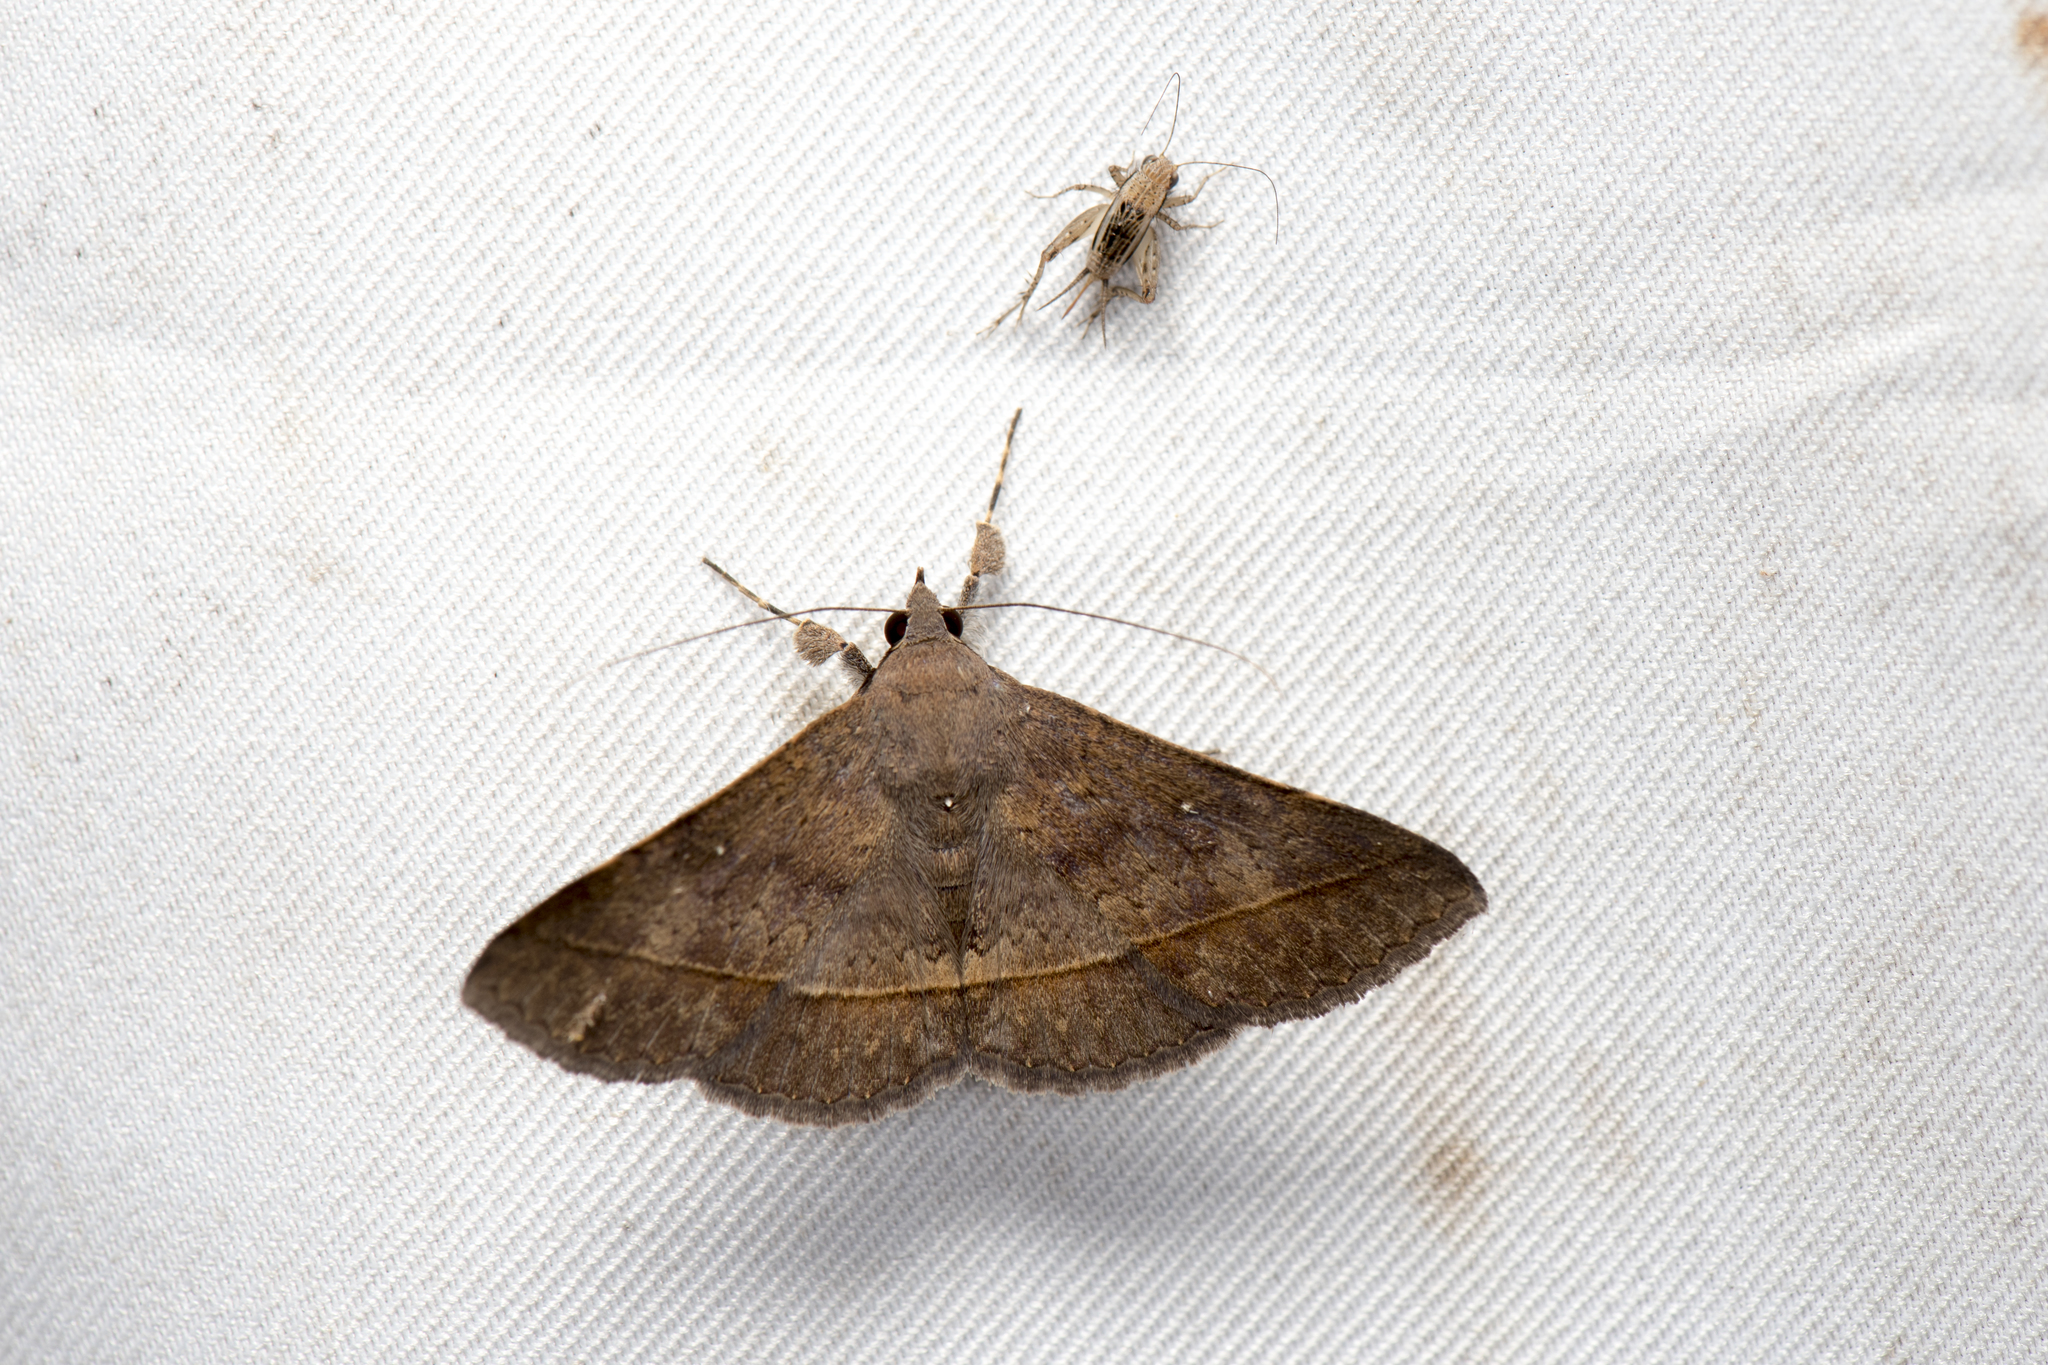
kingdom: Animalia
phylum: Arthropoda
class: Insecta
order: Lepidoptera
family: Erebidae
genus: Hypospila
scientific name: Hypospila bolinoides
